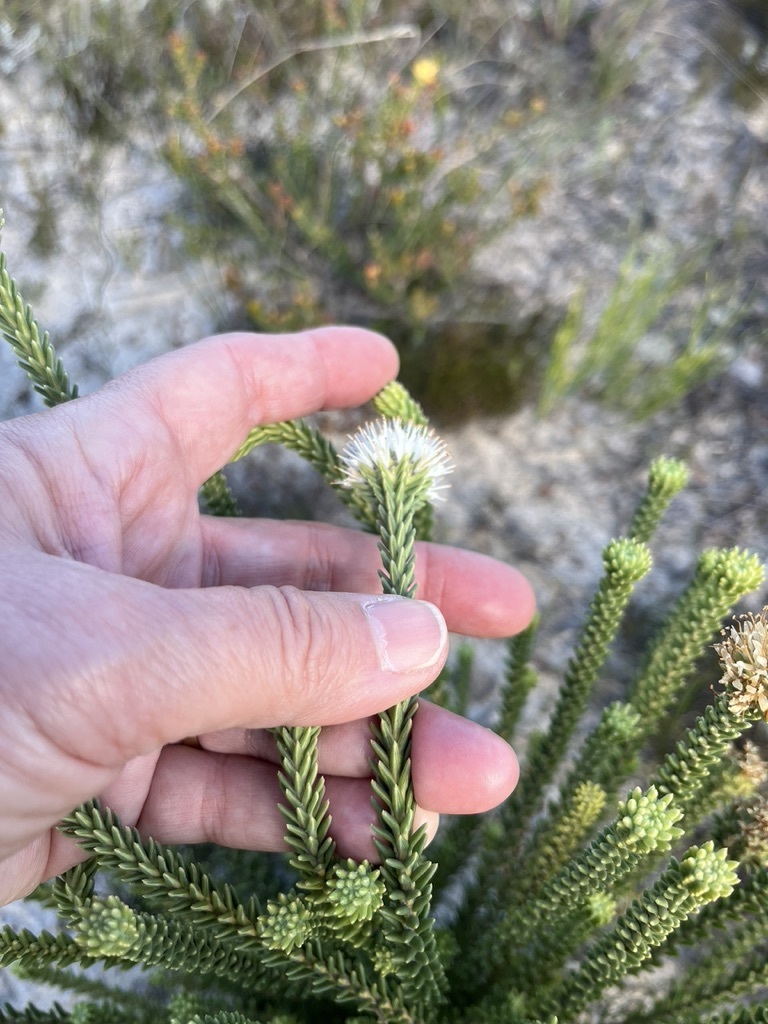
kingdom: Plantae
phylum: Tracheophyta
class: Magnoliopsida
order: Lamiales
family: Stilbaceae
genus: Campylostachys
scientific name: Campylostachys cernua
